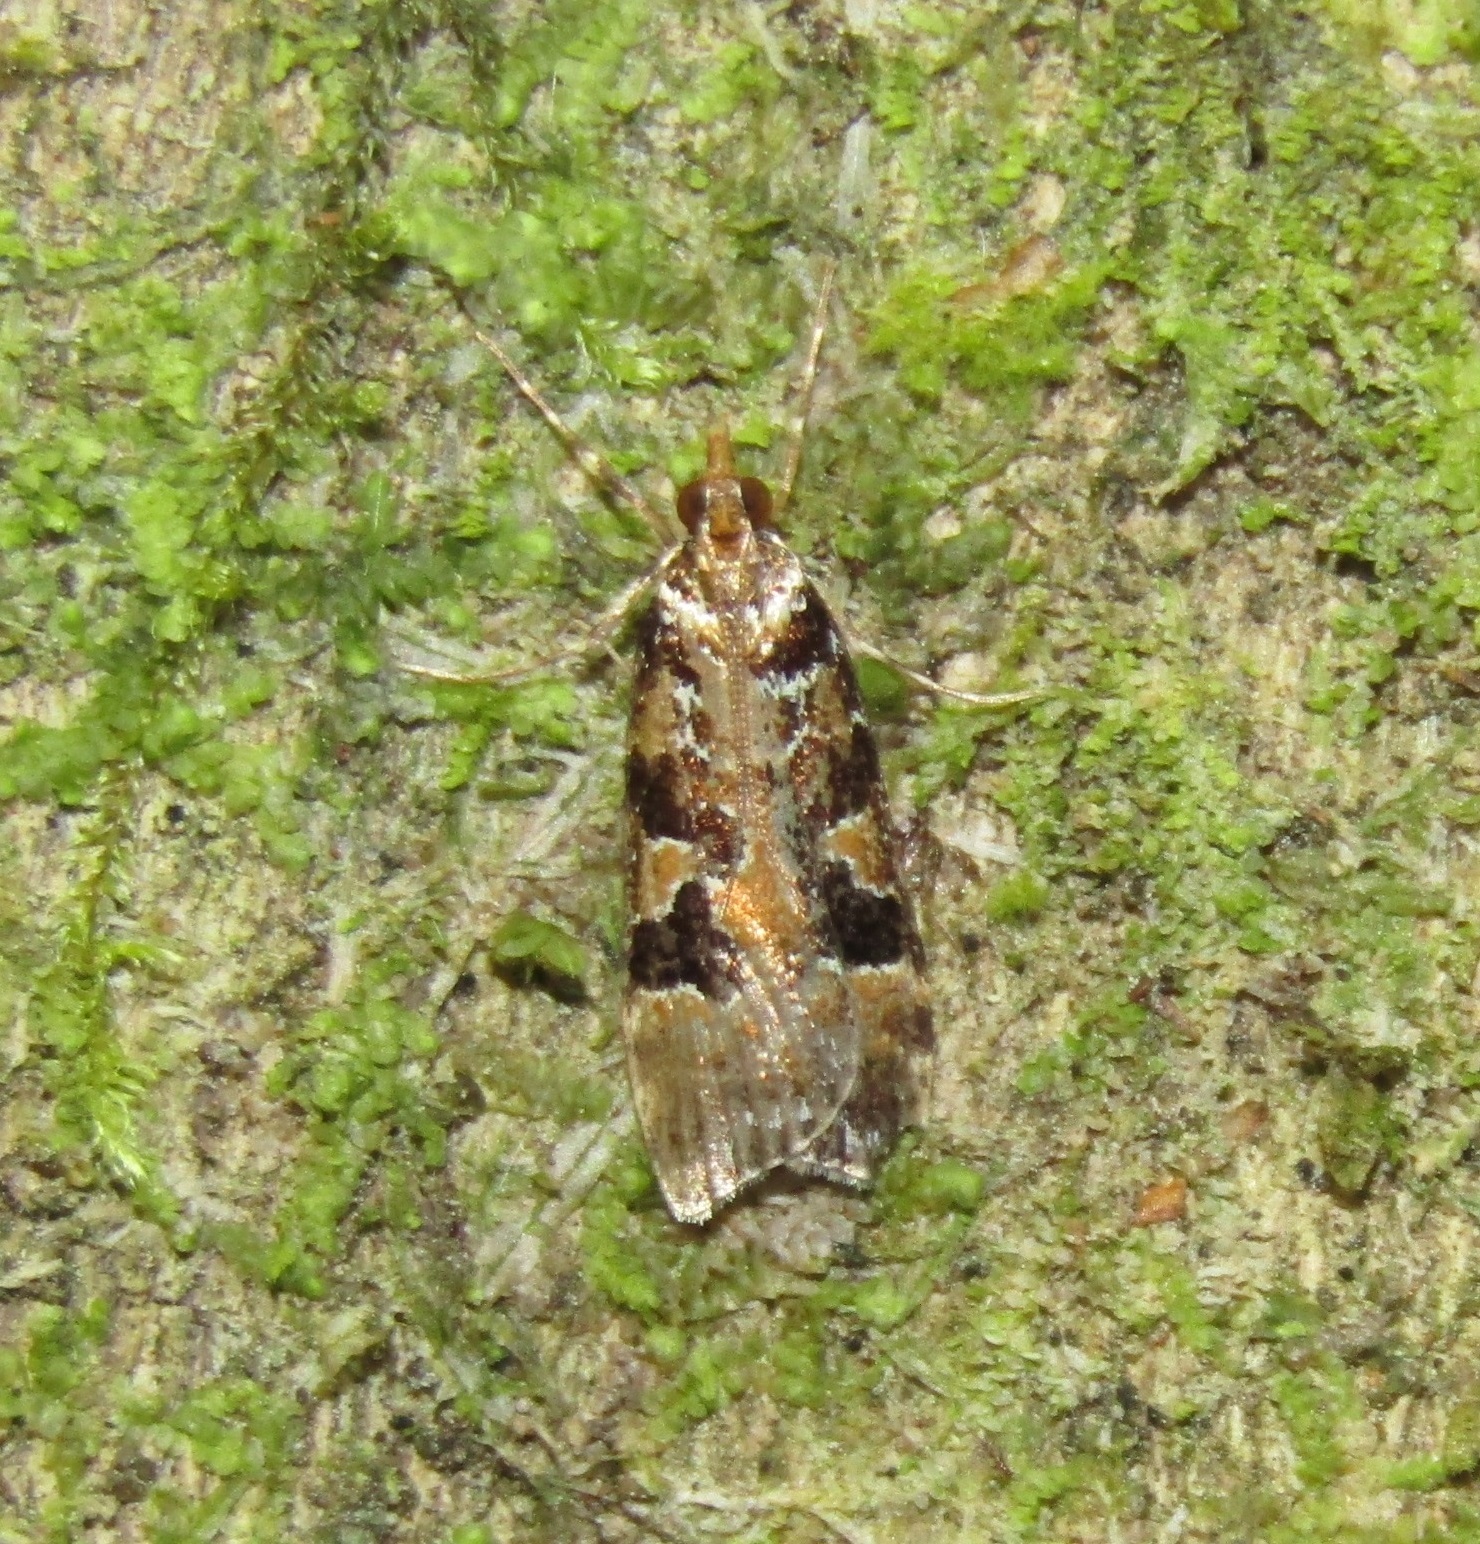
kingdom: Animalia
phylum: Arthropoda
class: Insecta
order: Lepidoptera
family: Crambidae
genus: Scoparia
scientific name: Scoparia ustimacula
